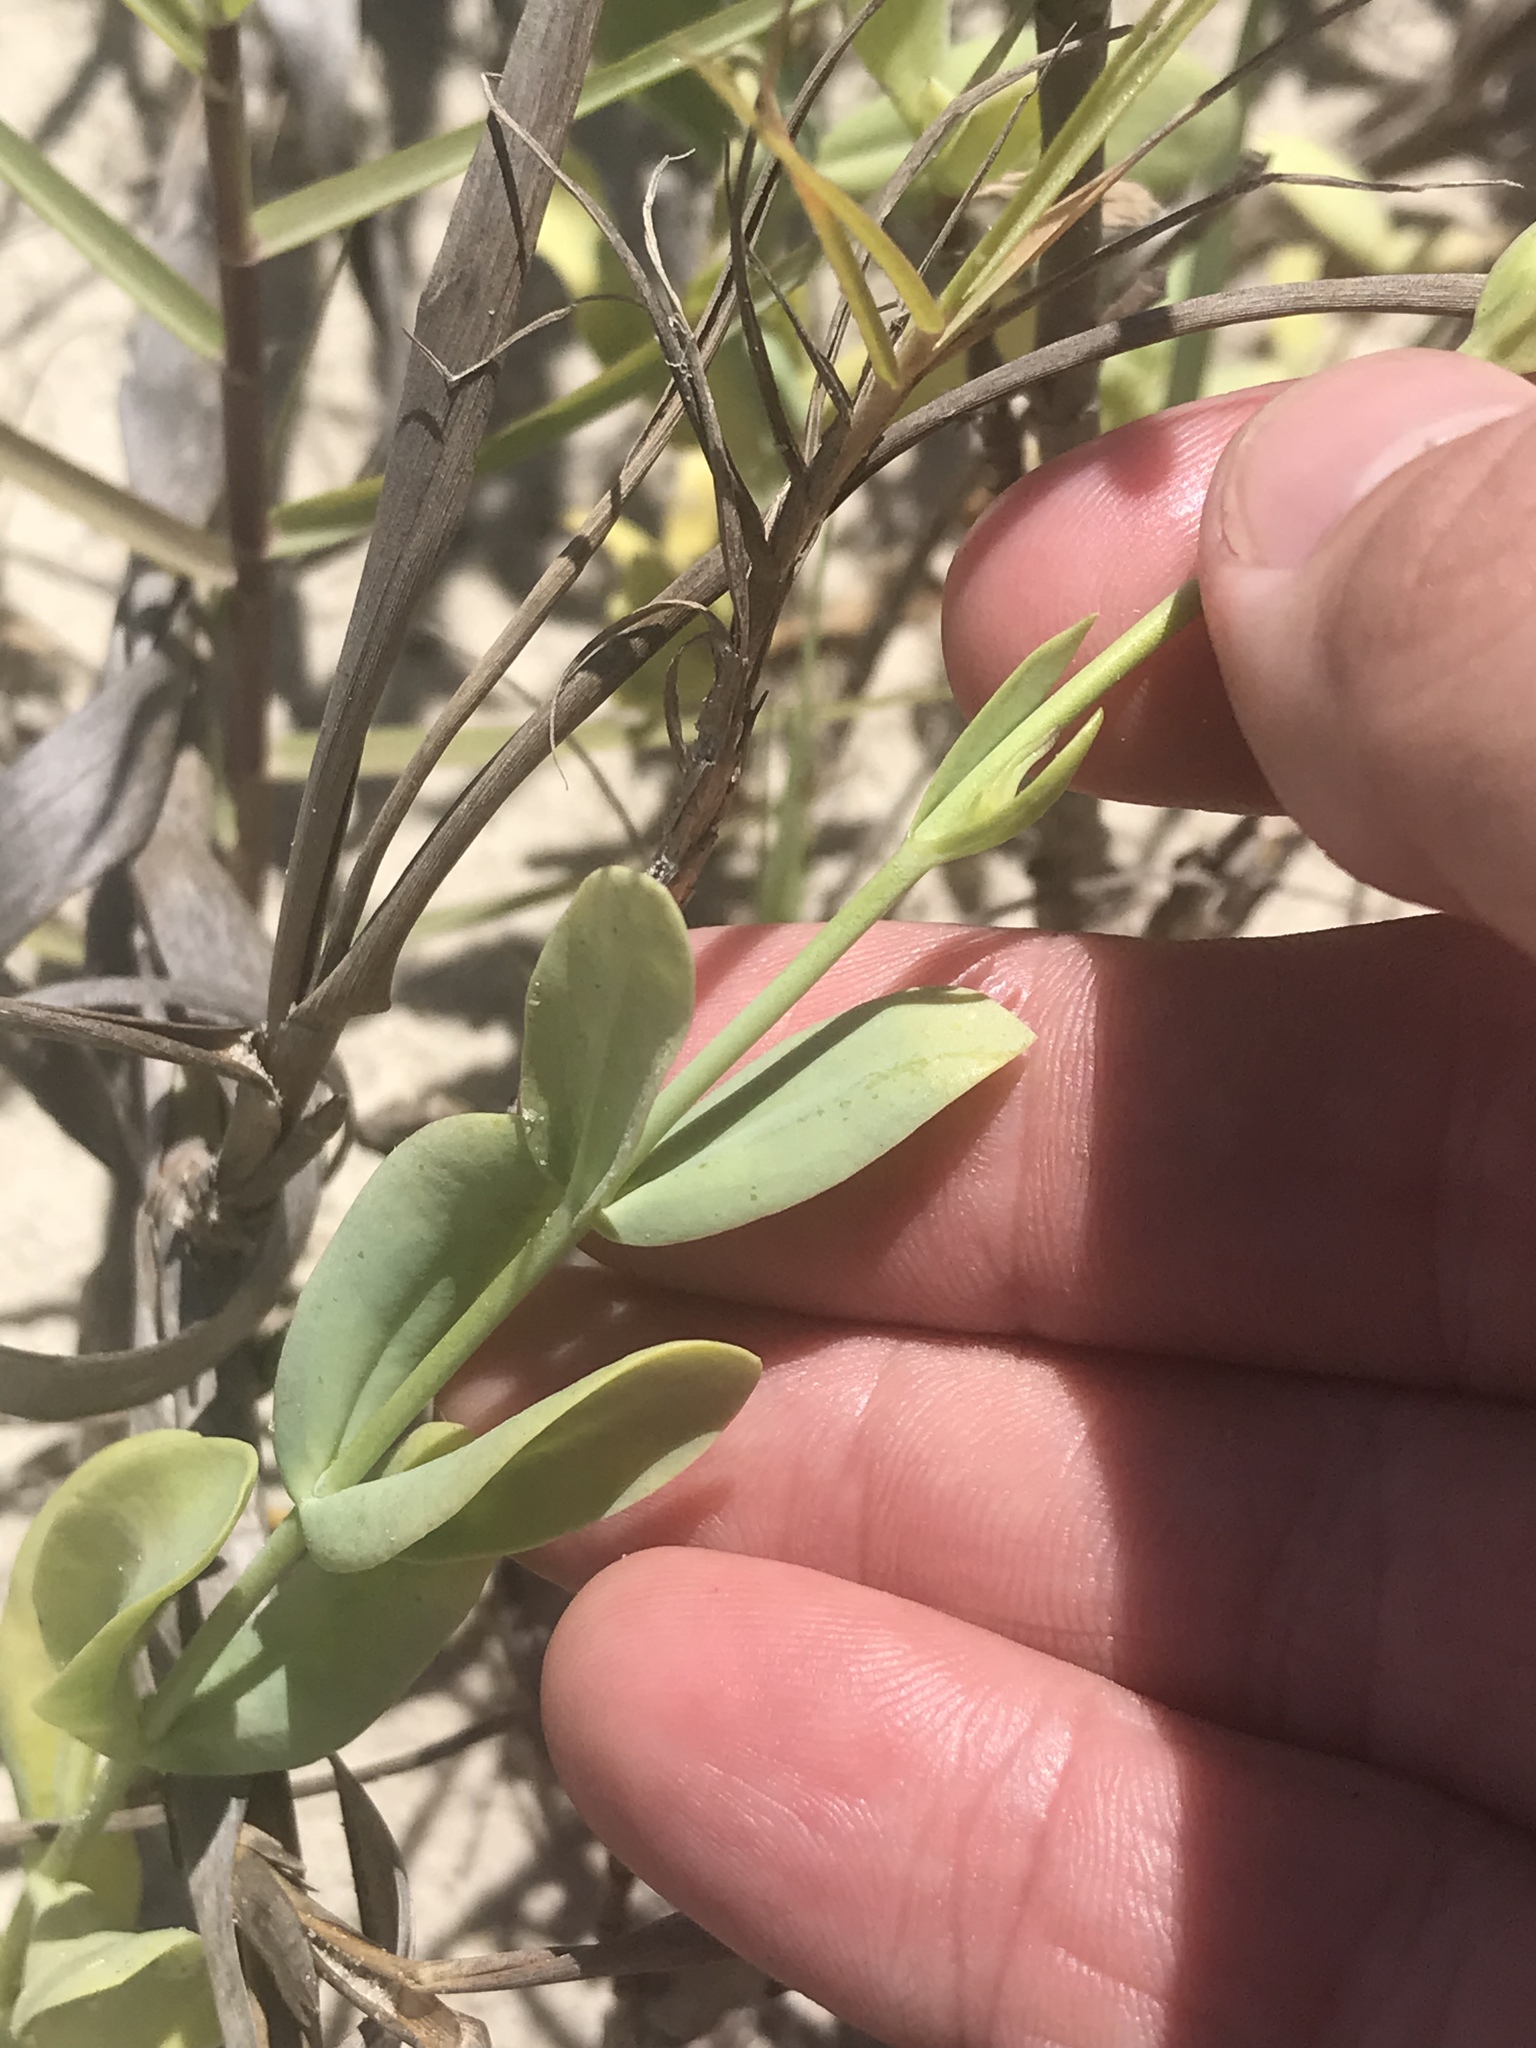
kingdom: Plantae
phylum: Tracheophyta
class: Magnoliopsida
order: Gentianales
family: Gentianaceae
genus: Eustoma
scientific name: Eustoma exaltatum
